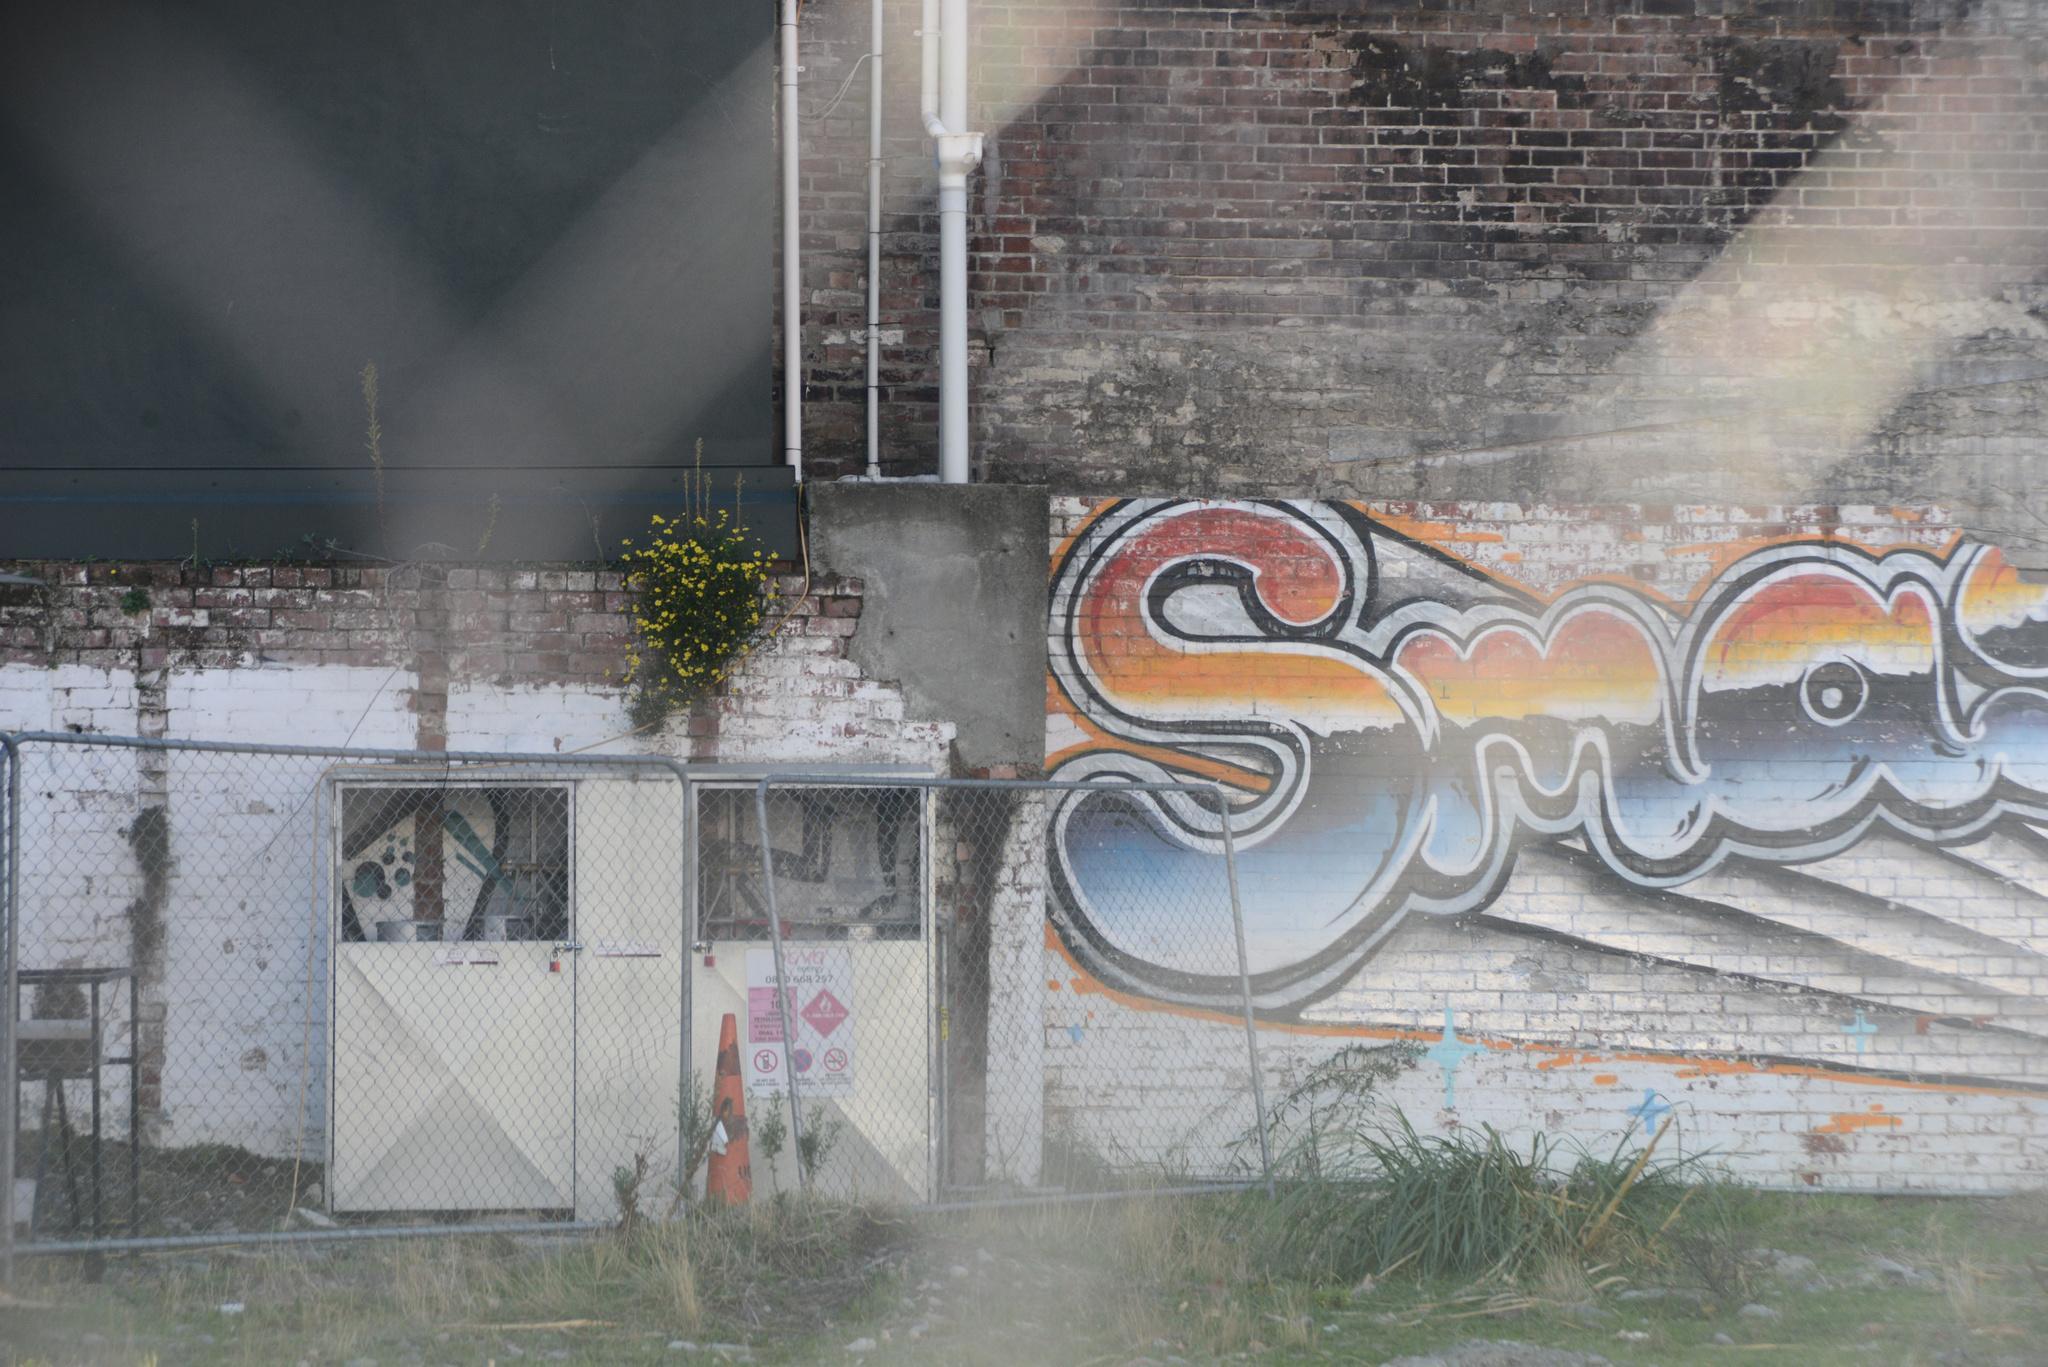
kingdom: Plantae
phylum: Tracheophyta
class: Magnoliopsida
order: Asterales
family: Asteraceae
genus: Senecio
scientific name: Senecio skirrhodon
